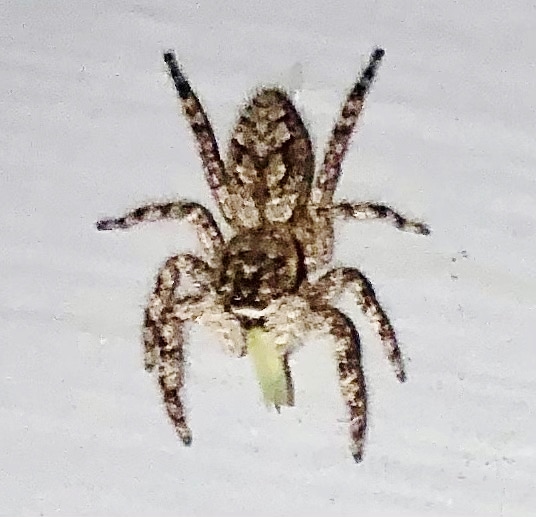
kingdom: Animalia
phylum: Arthropoda
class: Arachnida
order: Araneae
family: Salticidae
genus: Platycryptus
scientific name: Platycryptus undatus
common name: Tan jumping spider
